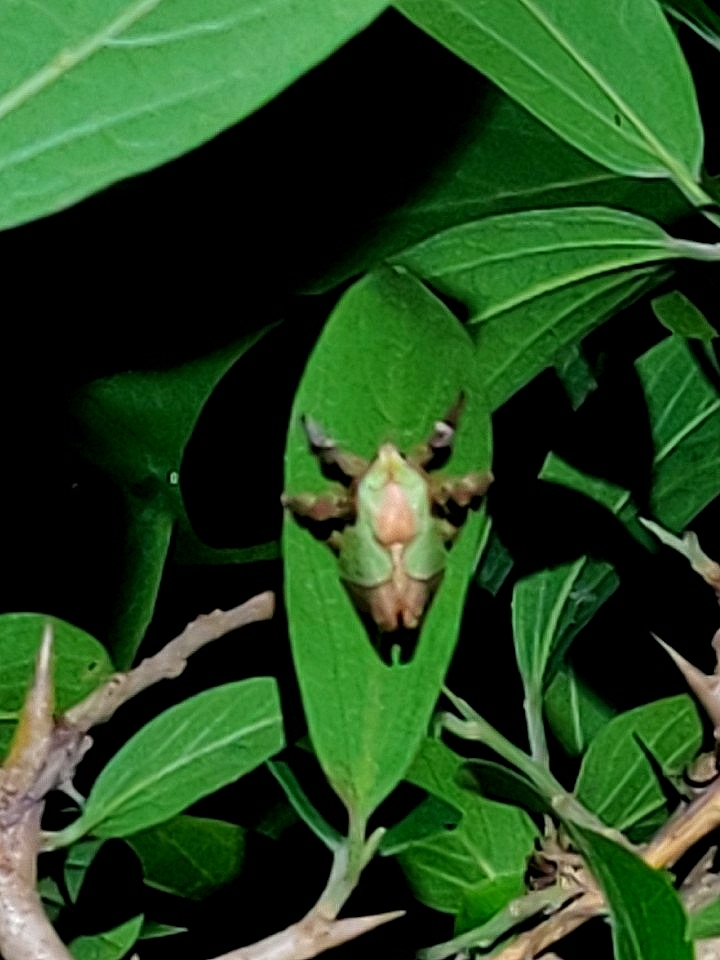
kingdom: Animalia
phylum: Arthropoda
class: Insecta
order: Lepidoptera
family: Limacodidae
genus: Parasa
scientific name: Parasa lepida
